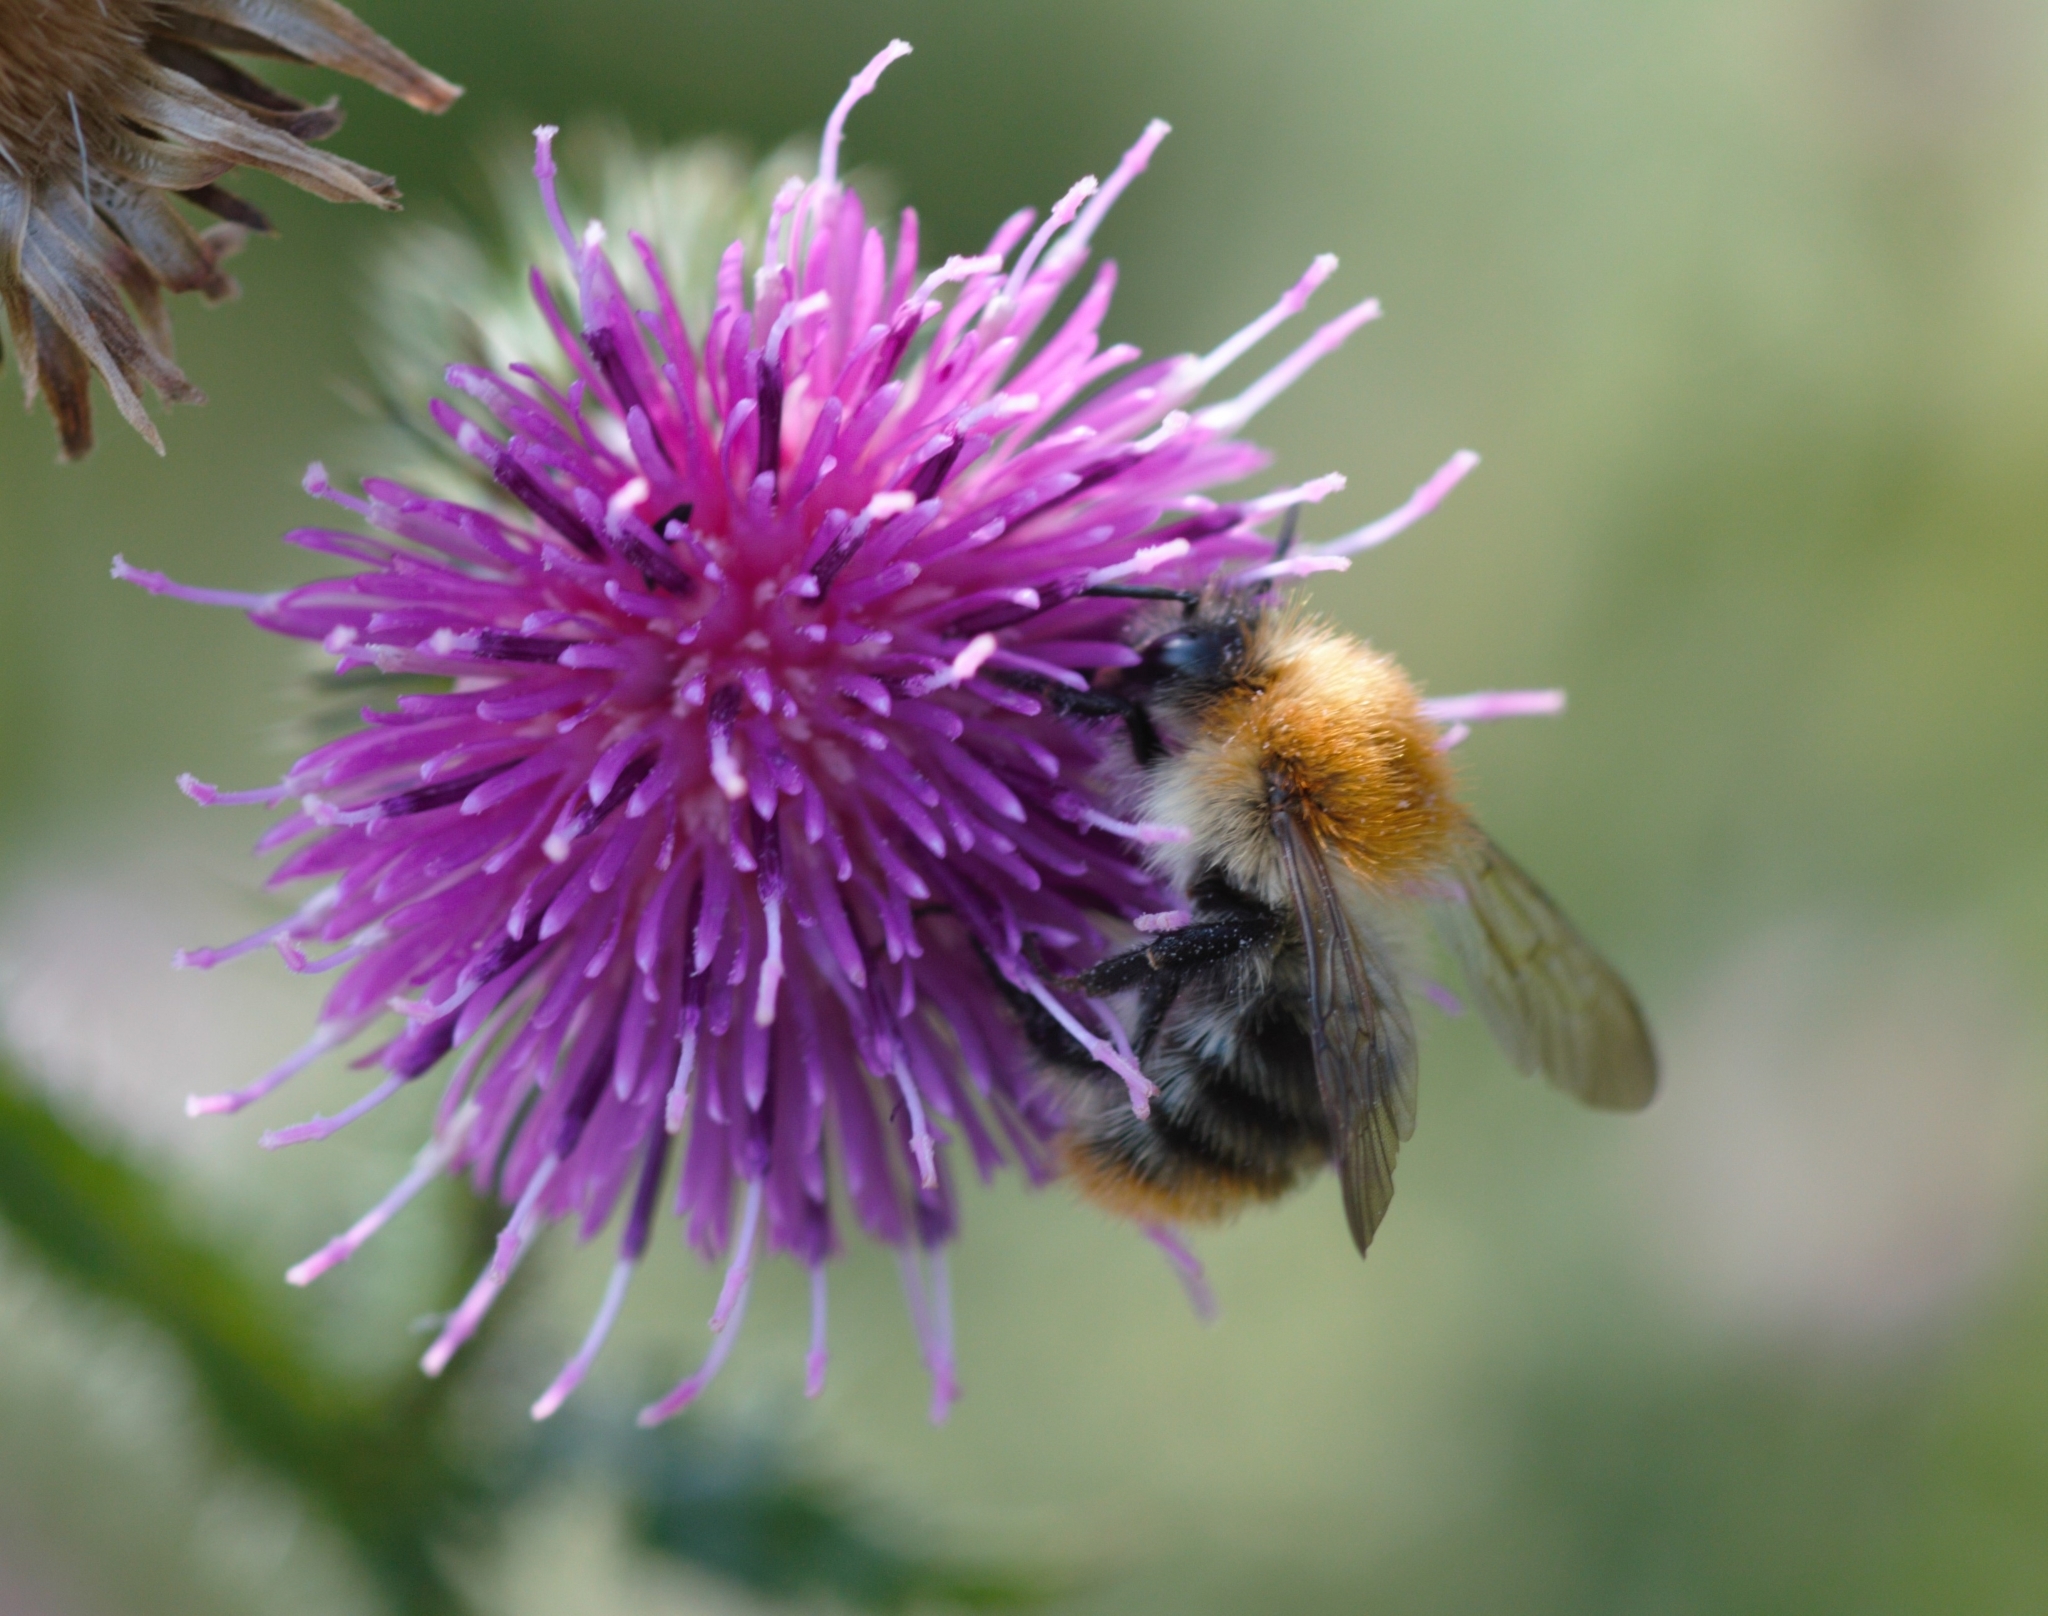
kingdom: Animalia
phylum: Arthropoda
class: Insecta
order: Hymenoptera
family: Apidae
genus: Bombus
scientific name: Bombus pascuorum
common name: Common carder bee
